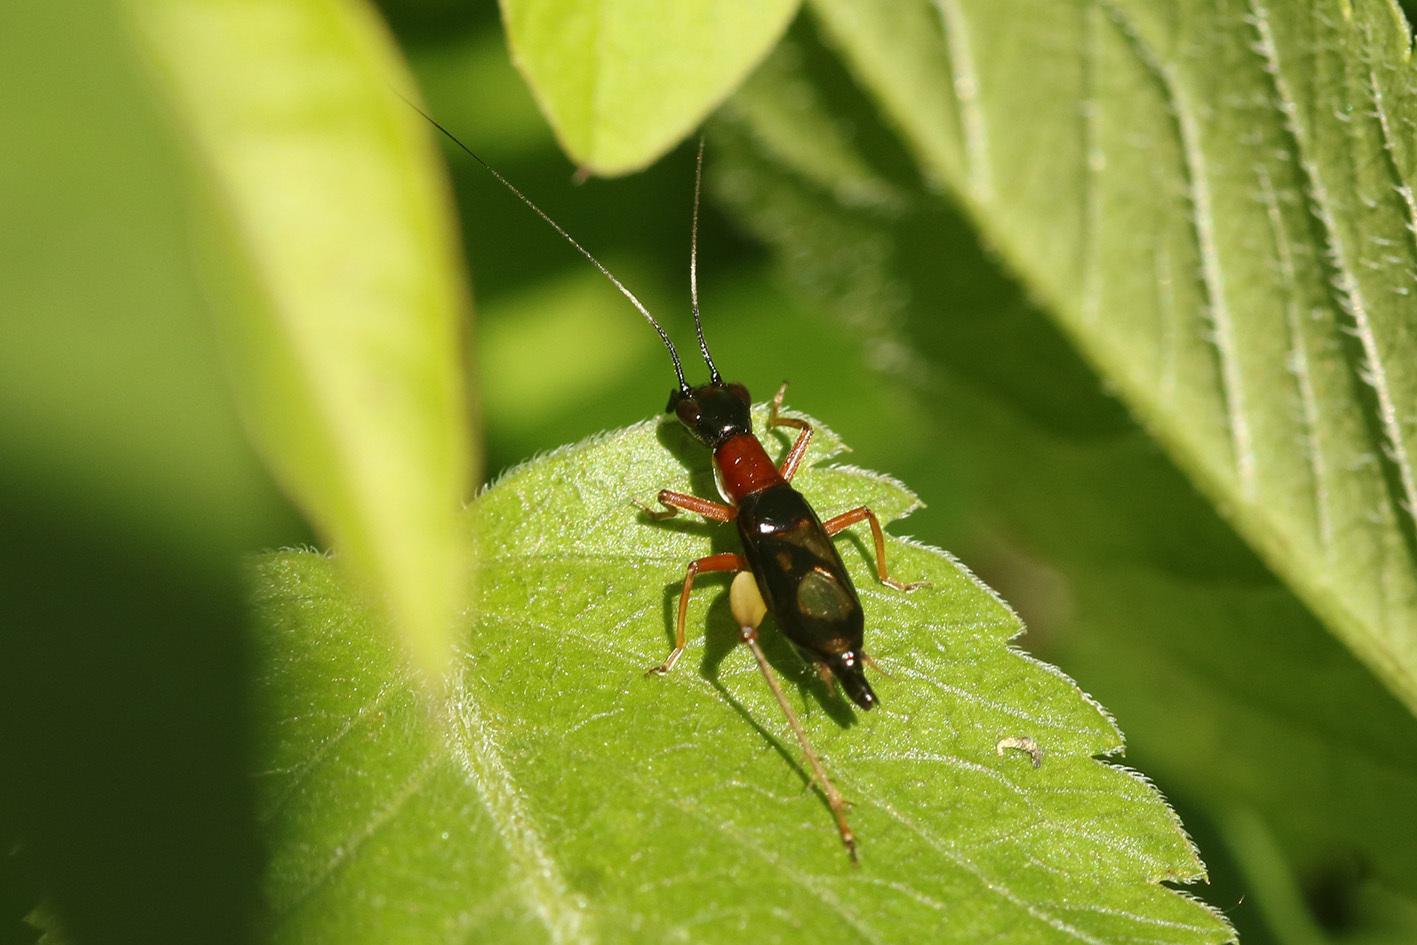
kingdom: Animalia
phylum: Arthropoda
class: Insecta
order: Orthoptera
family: Trigonidiidae
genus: Cranistus
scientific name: Cranistus colliurides
